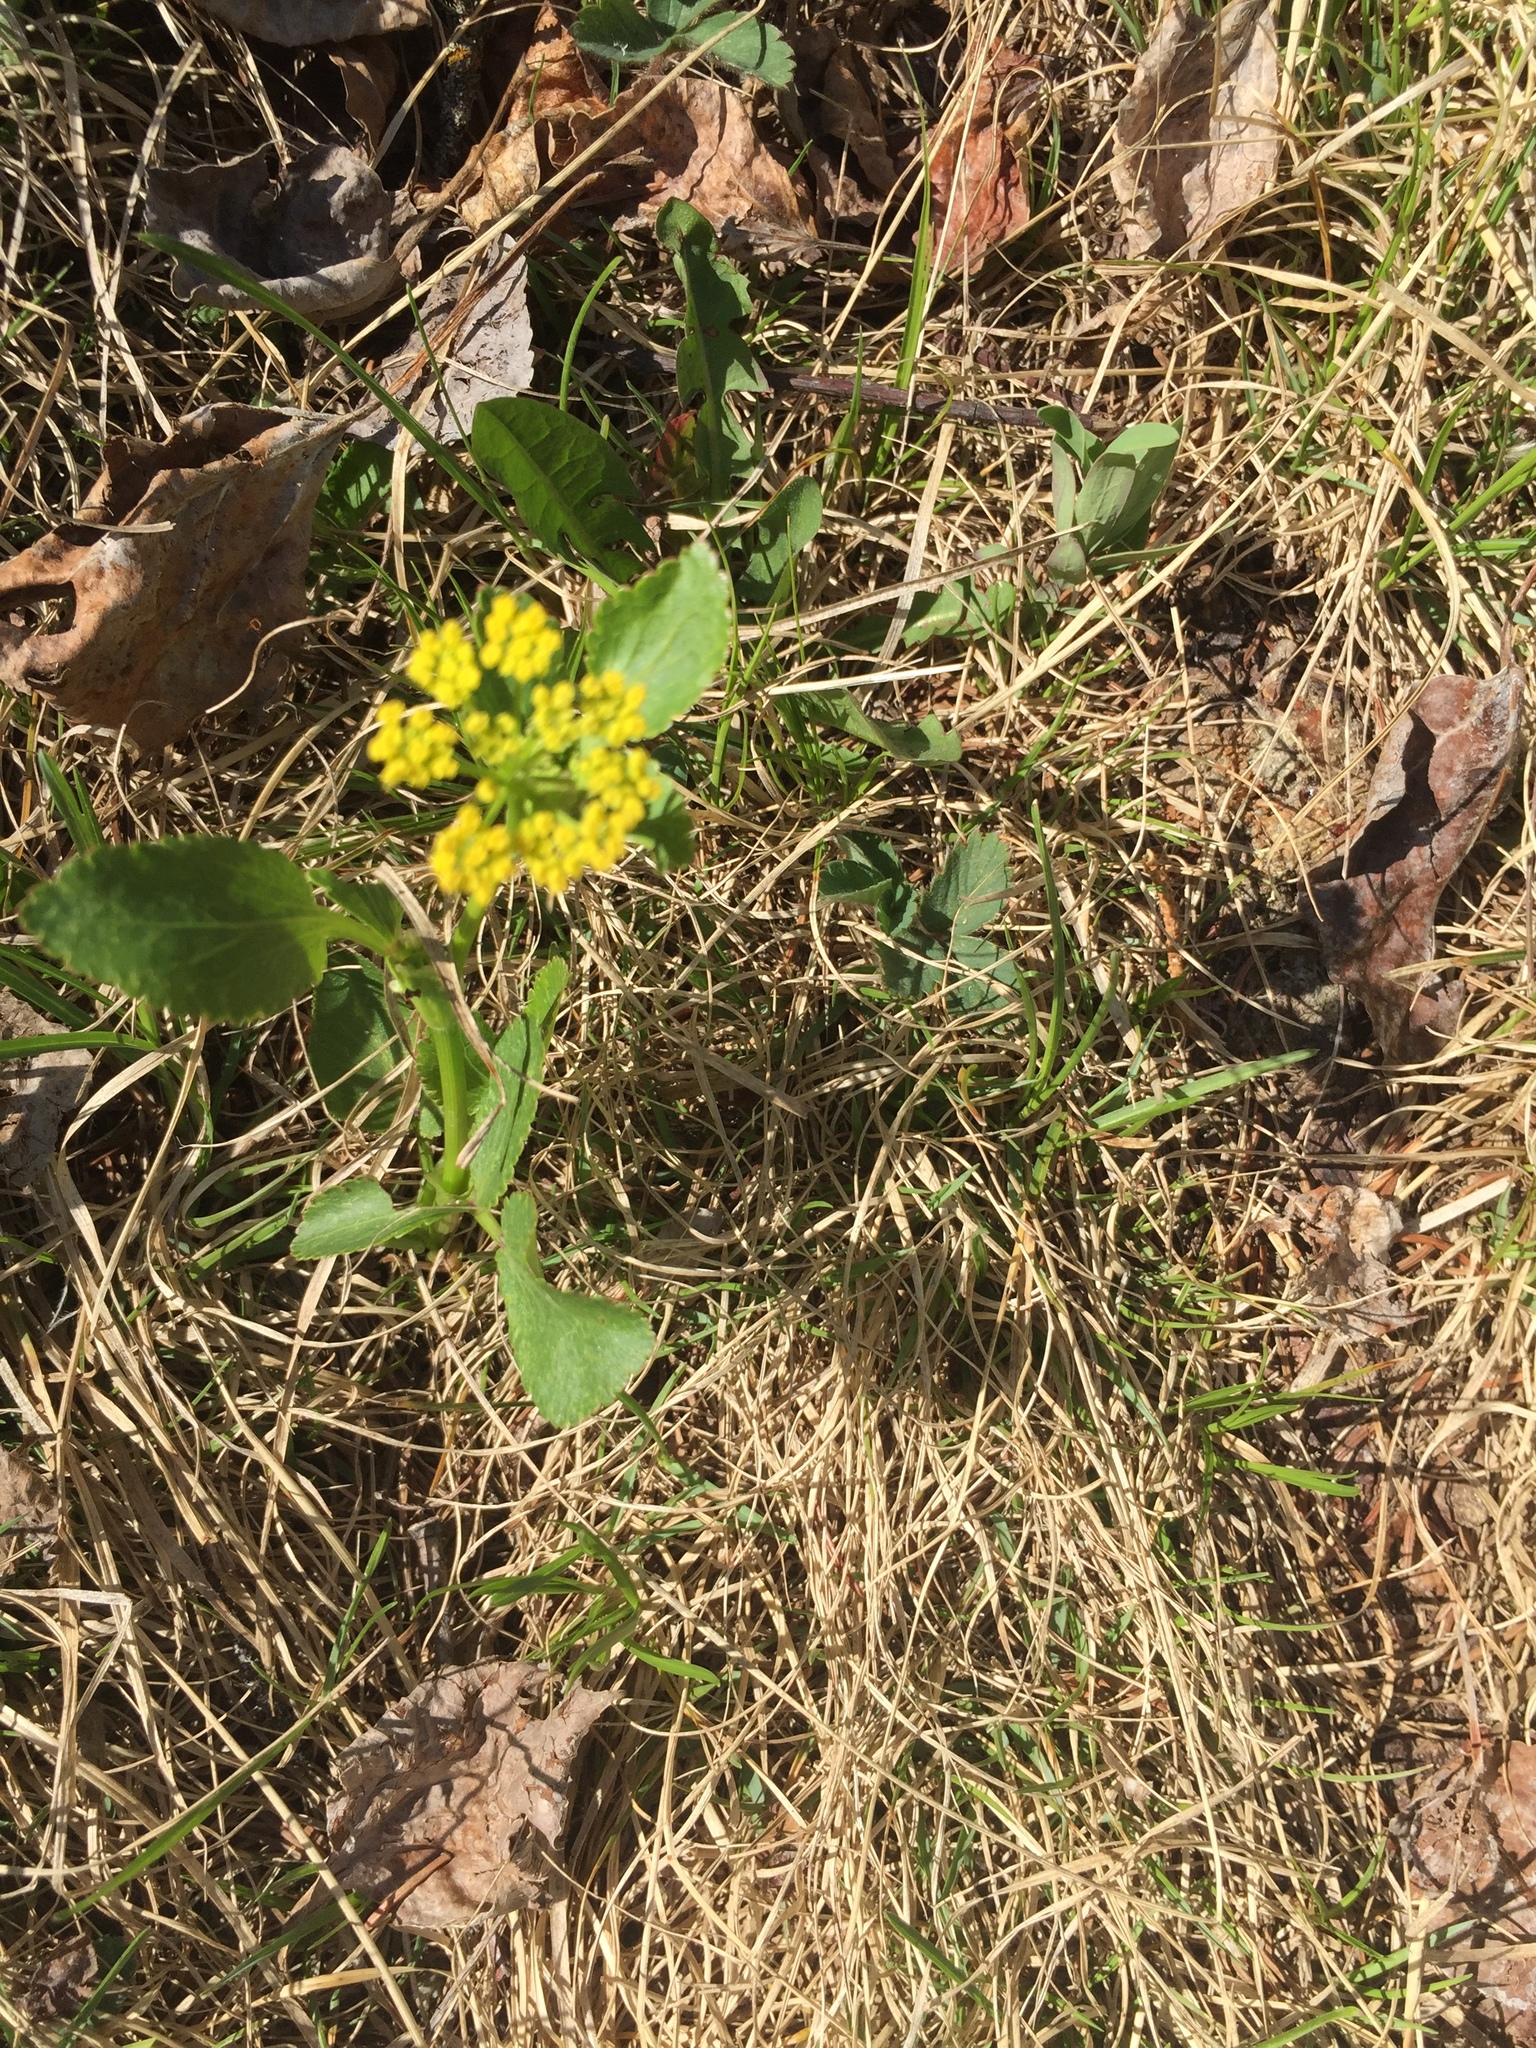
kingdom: Plantae
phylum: Tracheophyta
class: Magnoliopsida
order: Apiales
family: Apiaceae
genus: Zizia
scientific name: Zizia aptera
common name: Heart-leaved alexanders
